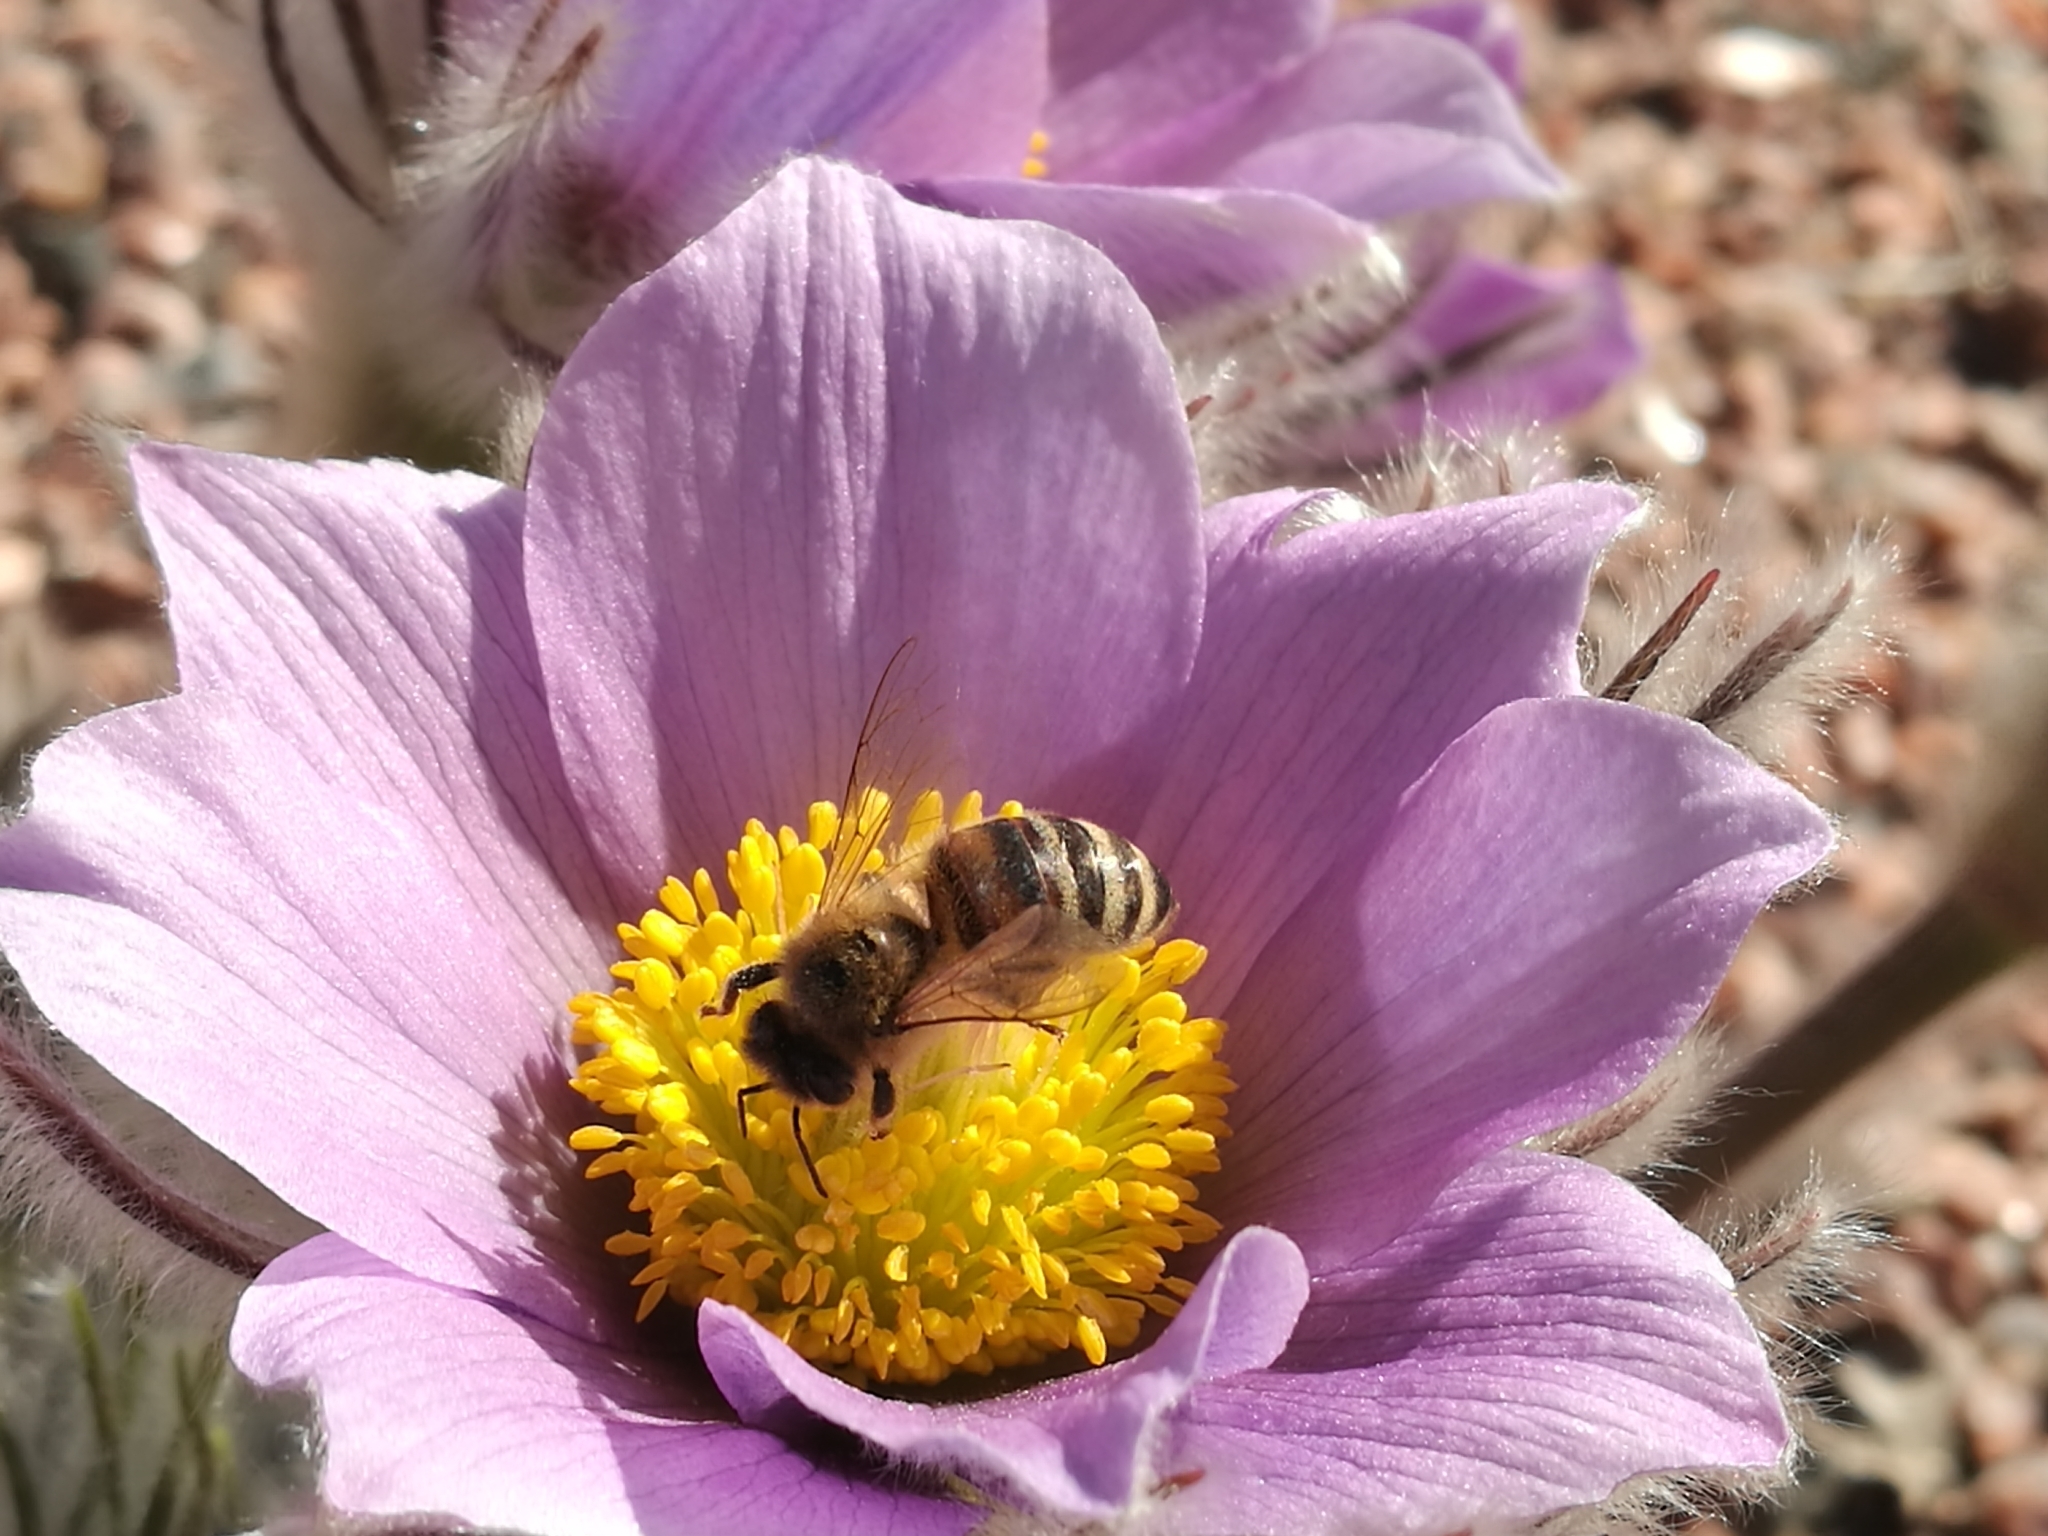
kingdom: Animalia
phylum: Arthropoda
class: Insecta
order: Hymenoptera
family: Apidae
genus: Apis
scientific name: Apis mellifera
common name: Honey bee
